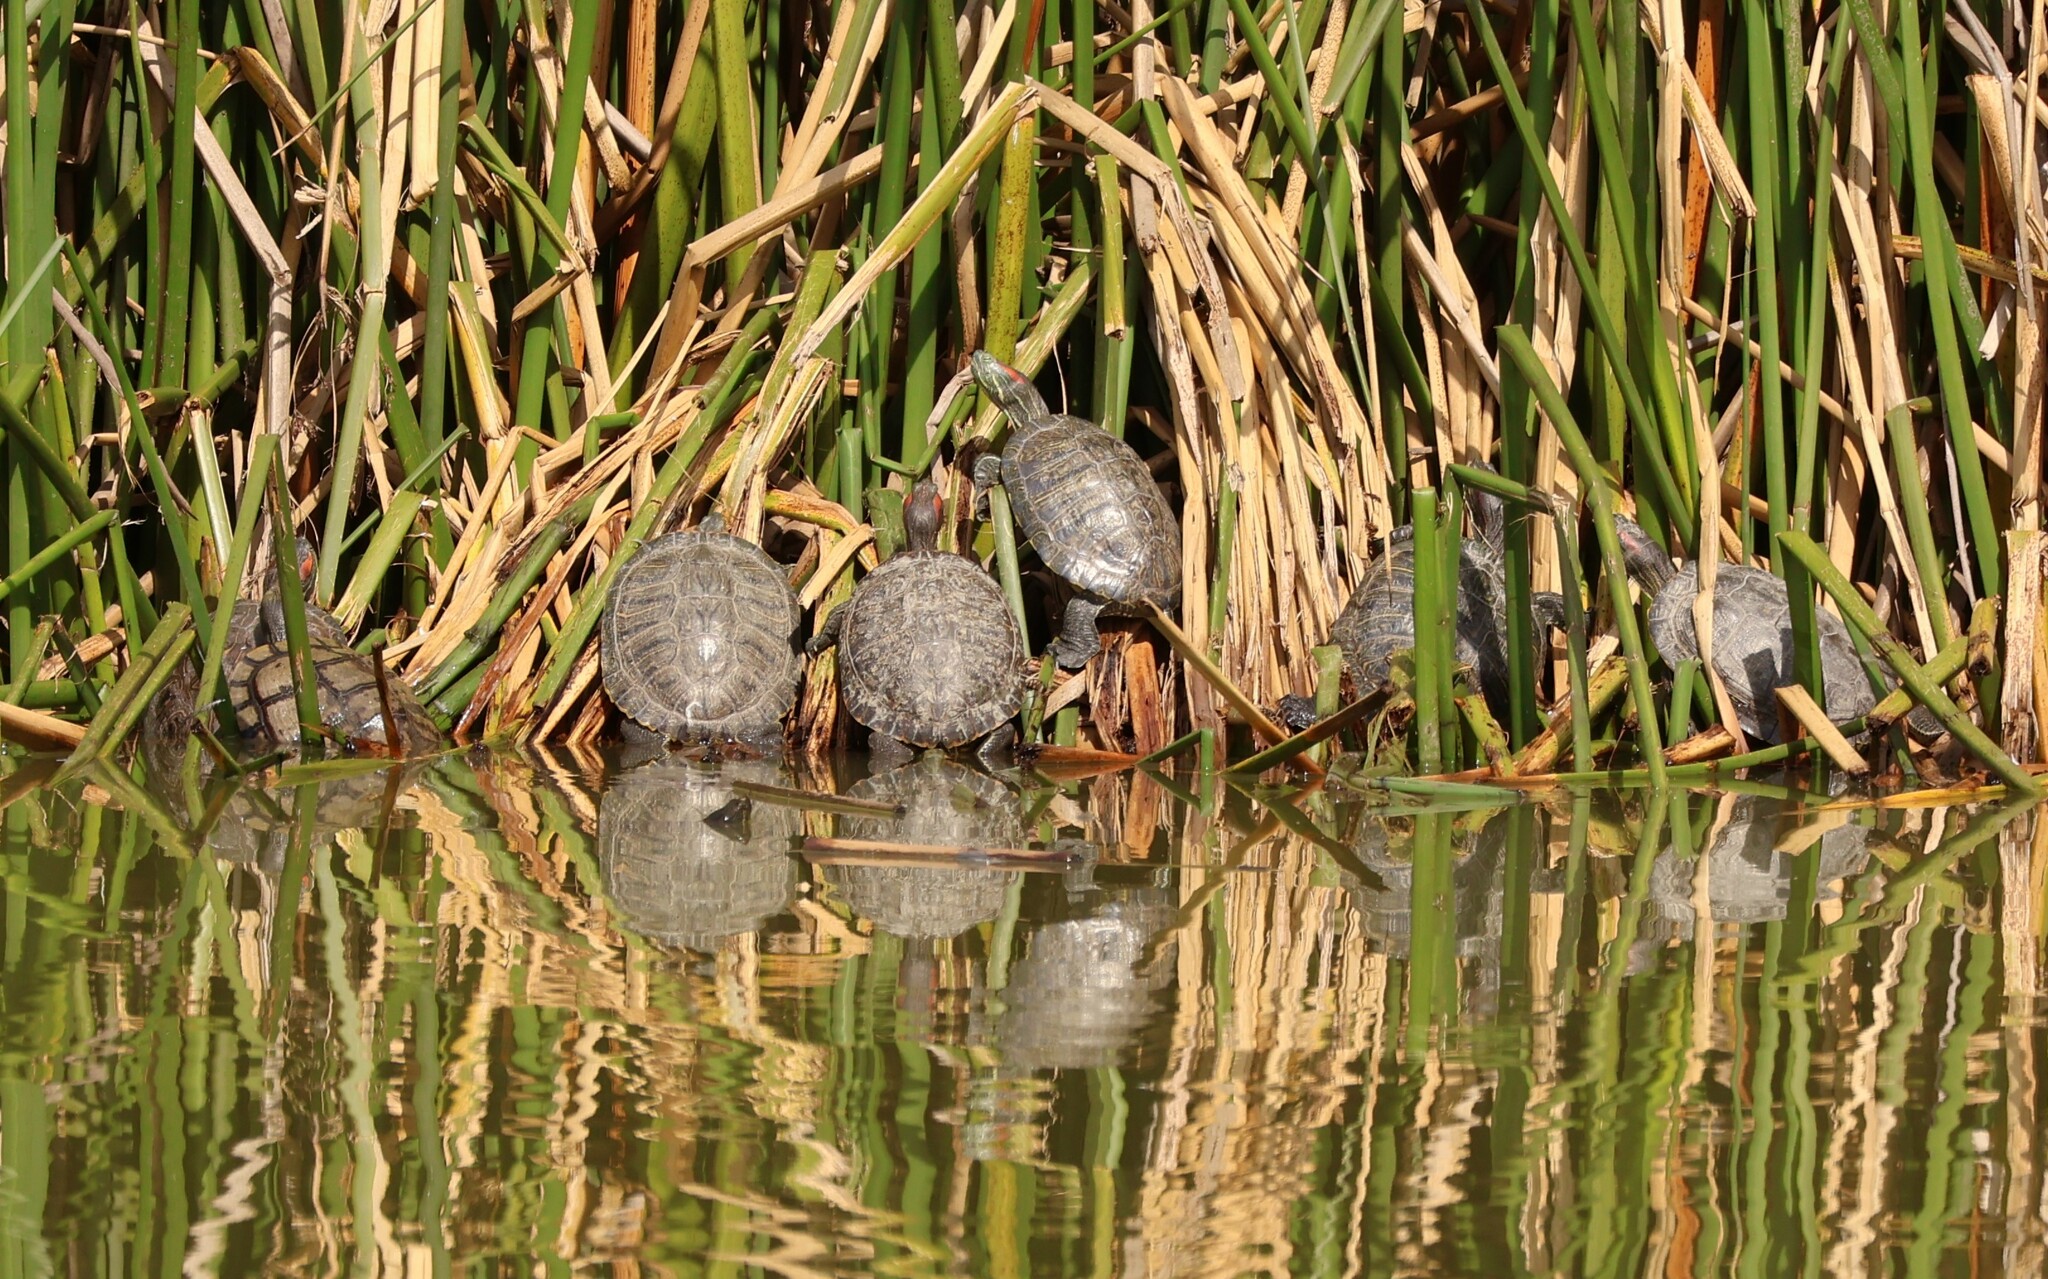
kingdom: Animalia
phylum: Chordata
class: Testudines
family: Emydidae
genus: Trachemys
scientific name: Trachemys scripta
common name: Slider
